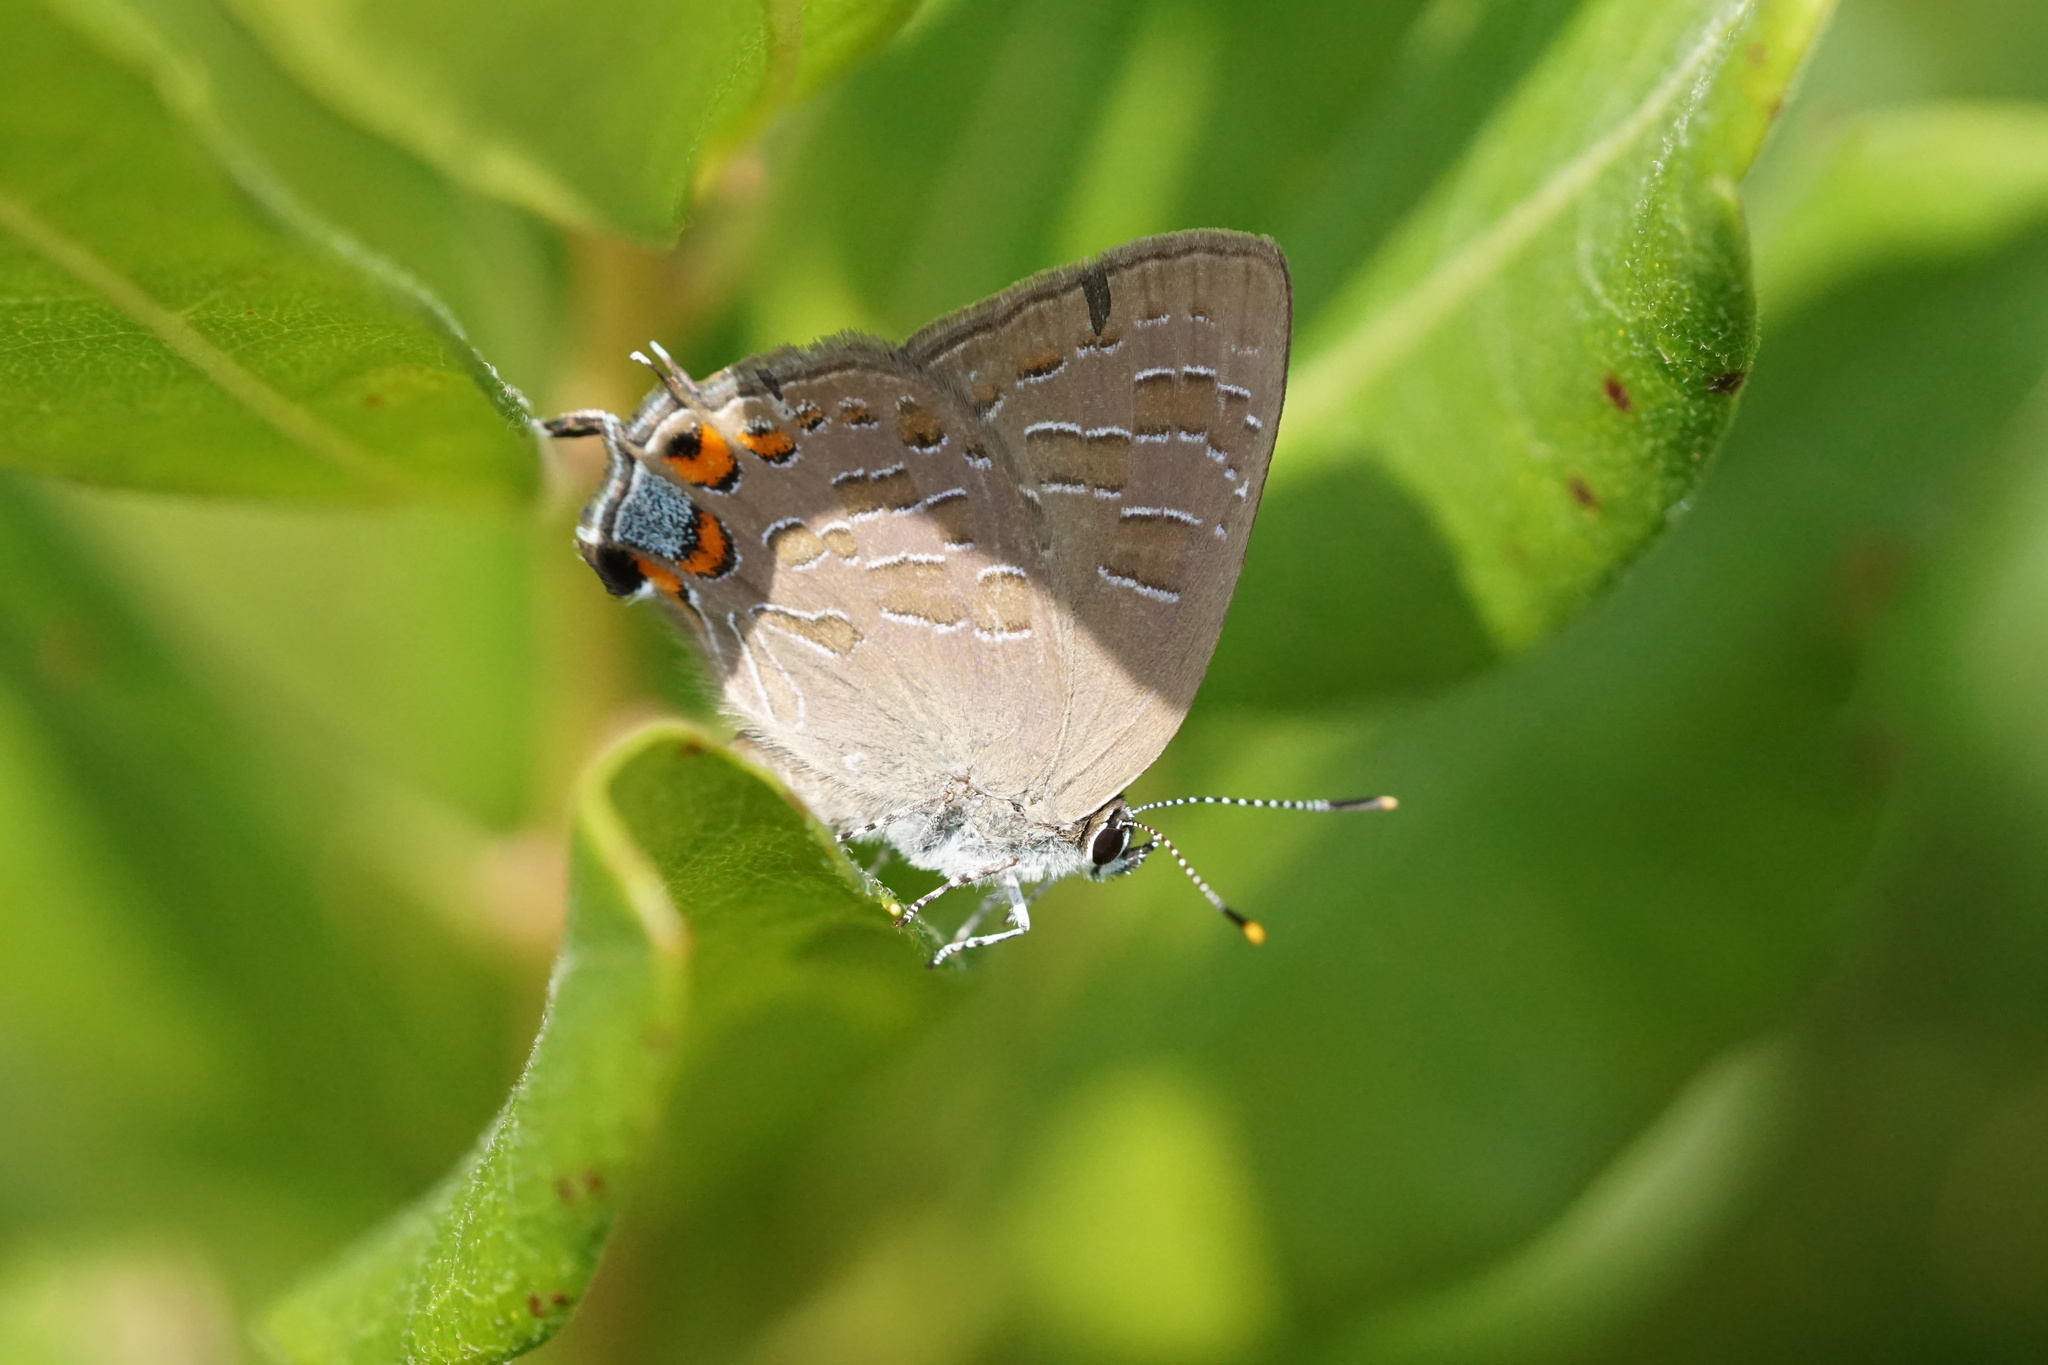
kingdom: Animalia
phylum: Arthropoda
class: Insecta
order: Lepidoptera
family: Lycaenidae
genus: Satyrium
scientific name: Satyrium liparops
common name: Striped hairstreak
